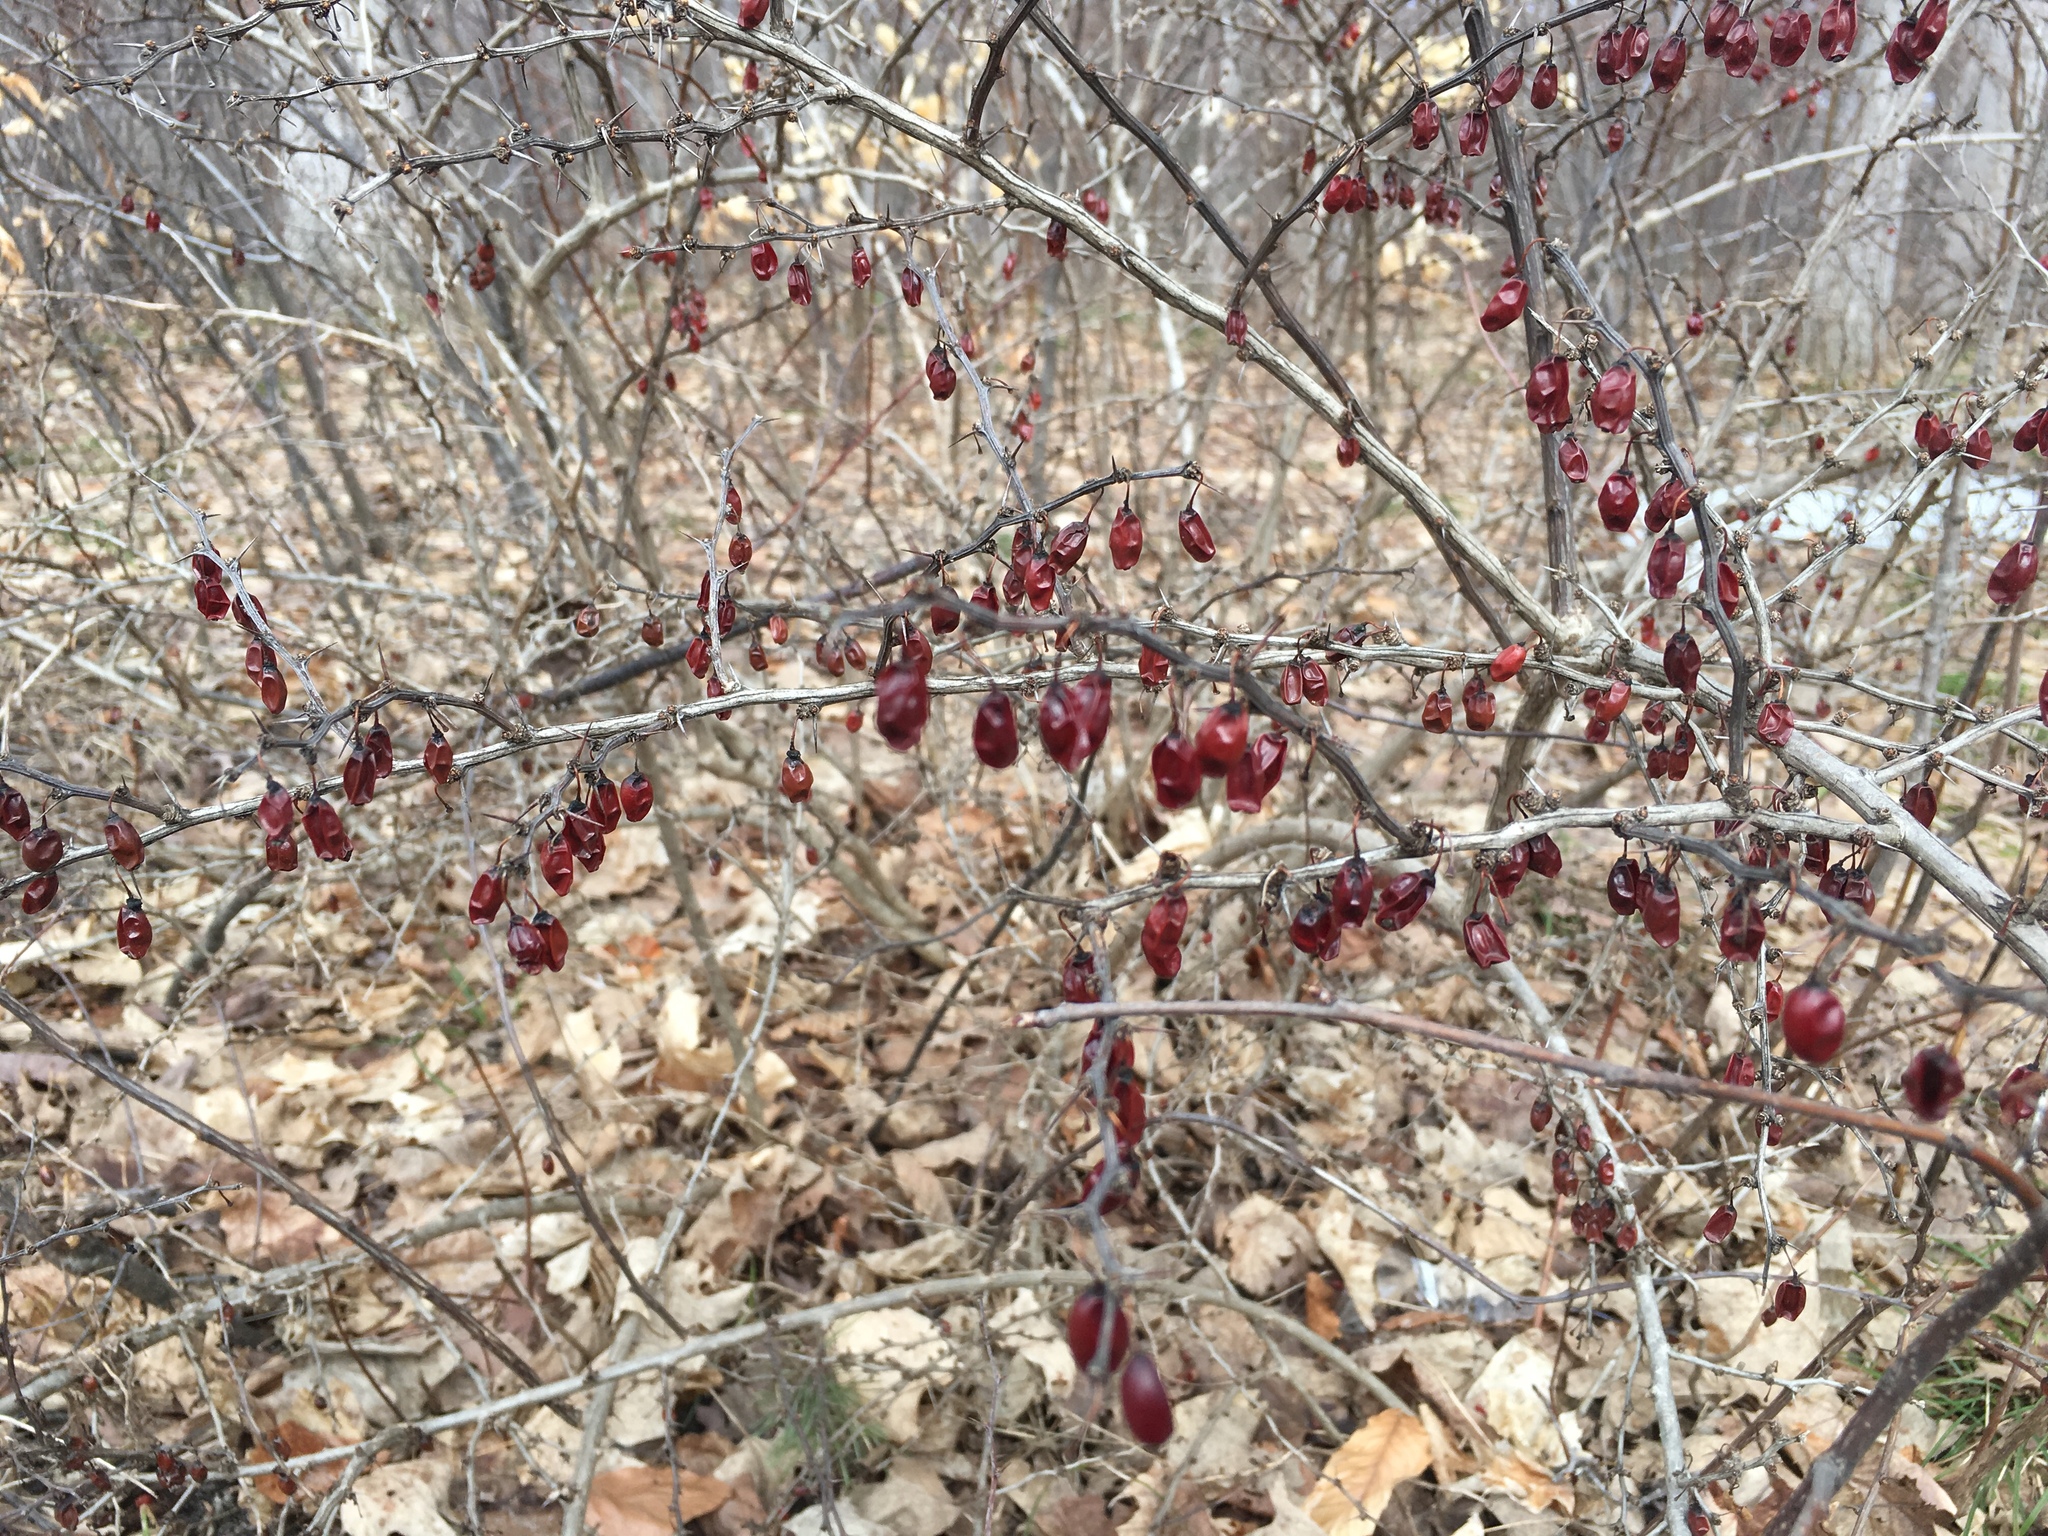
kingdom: Plantae
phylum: Tracheophyta
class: Magnoliopsida
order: Ranunculales
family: Berberidaceae
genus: Berberis
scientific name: Berberis thunbergii
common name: Japanese barberry
